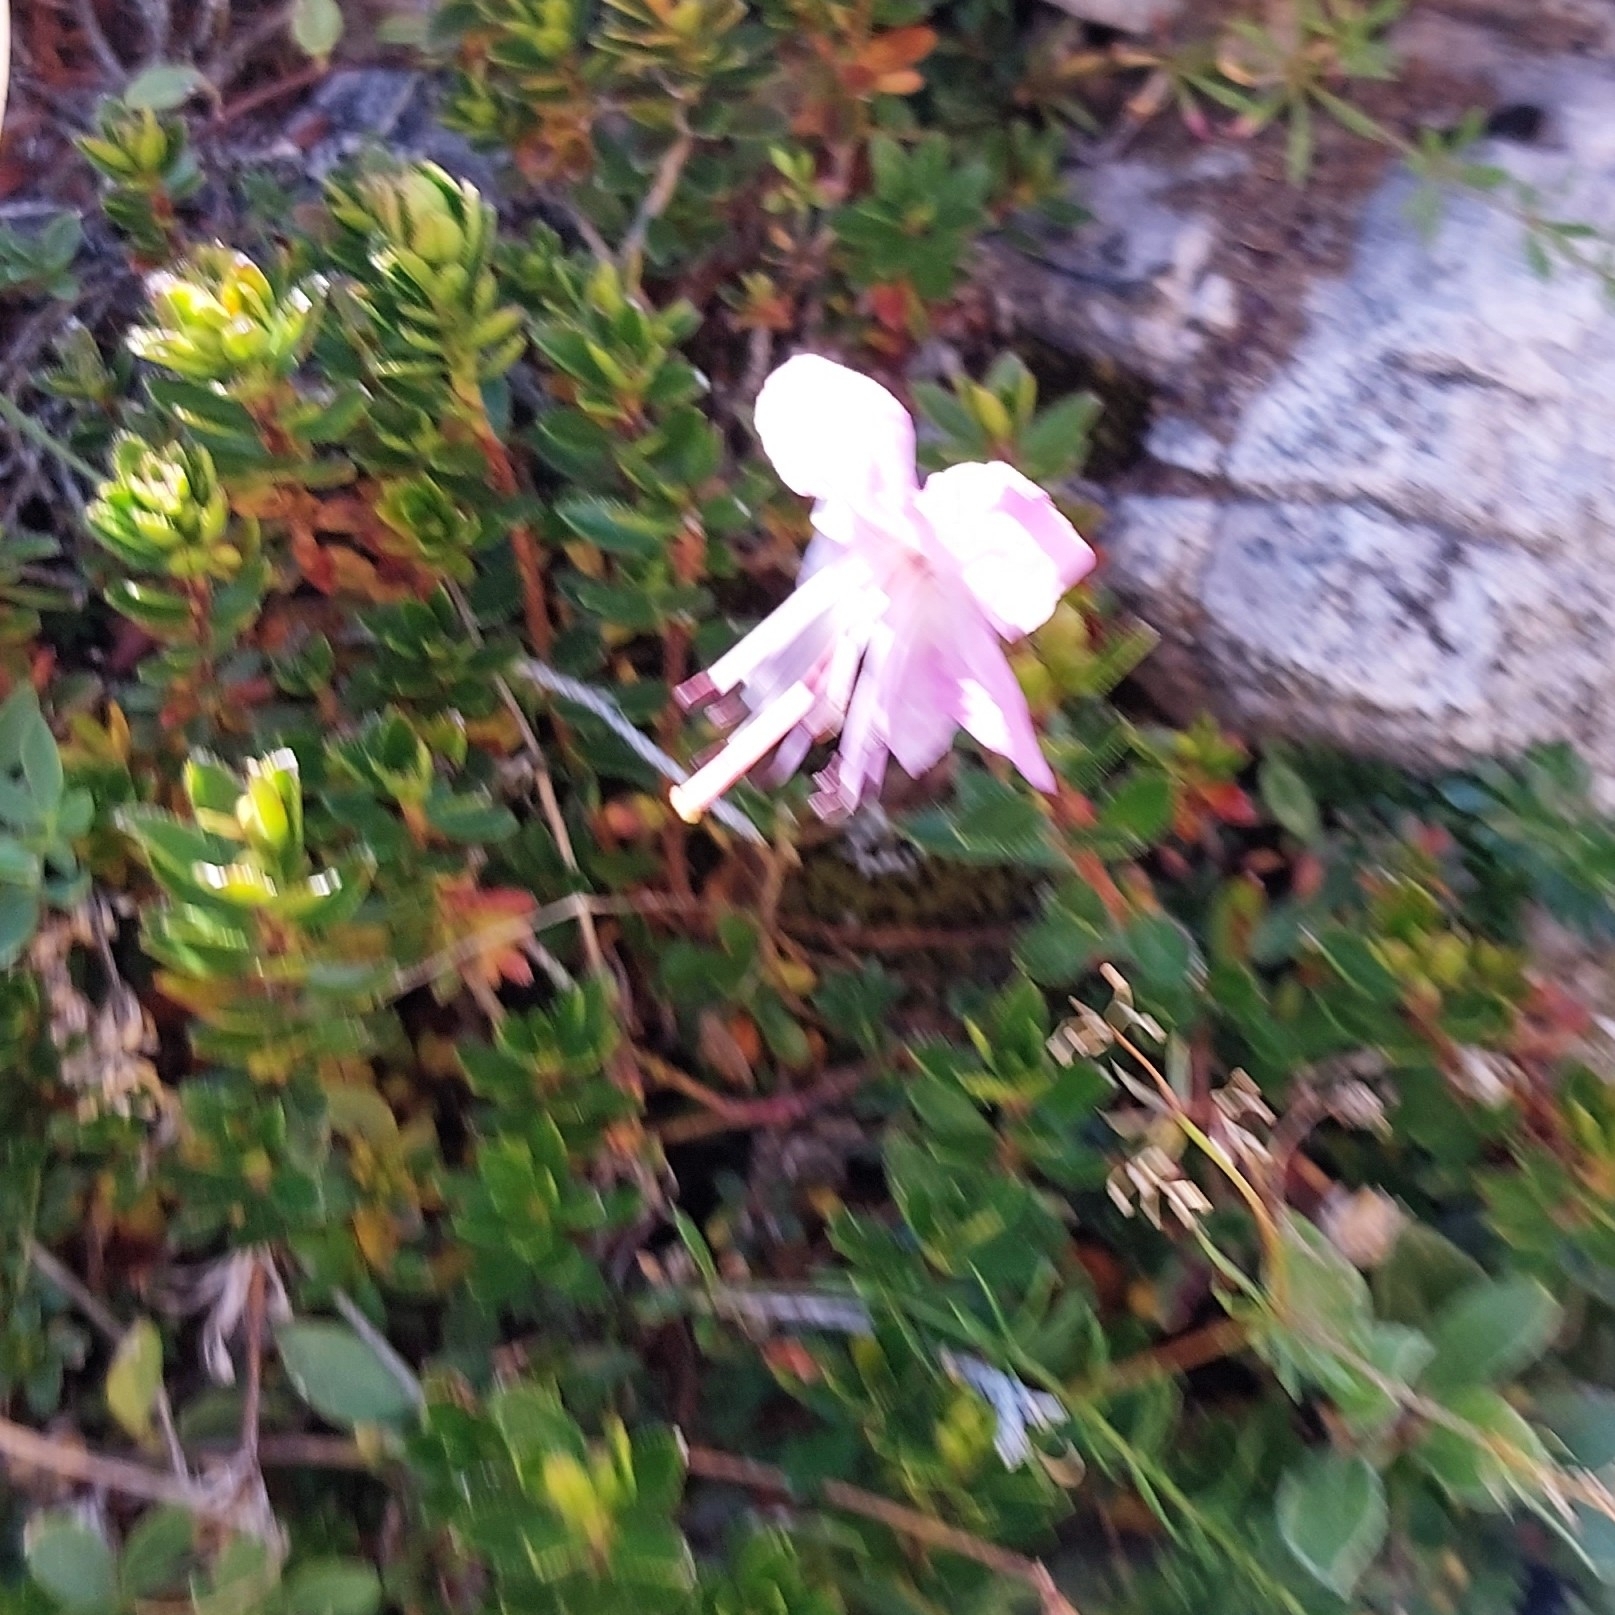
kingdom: Plantae
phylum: Tracheophyta
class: Magnoliopsida
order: Ericales
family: Ericaceae
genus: Rhodothamnus
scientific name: Rhodothamnus chamaecistus
